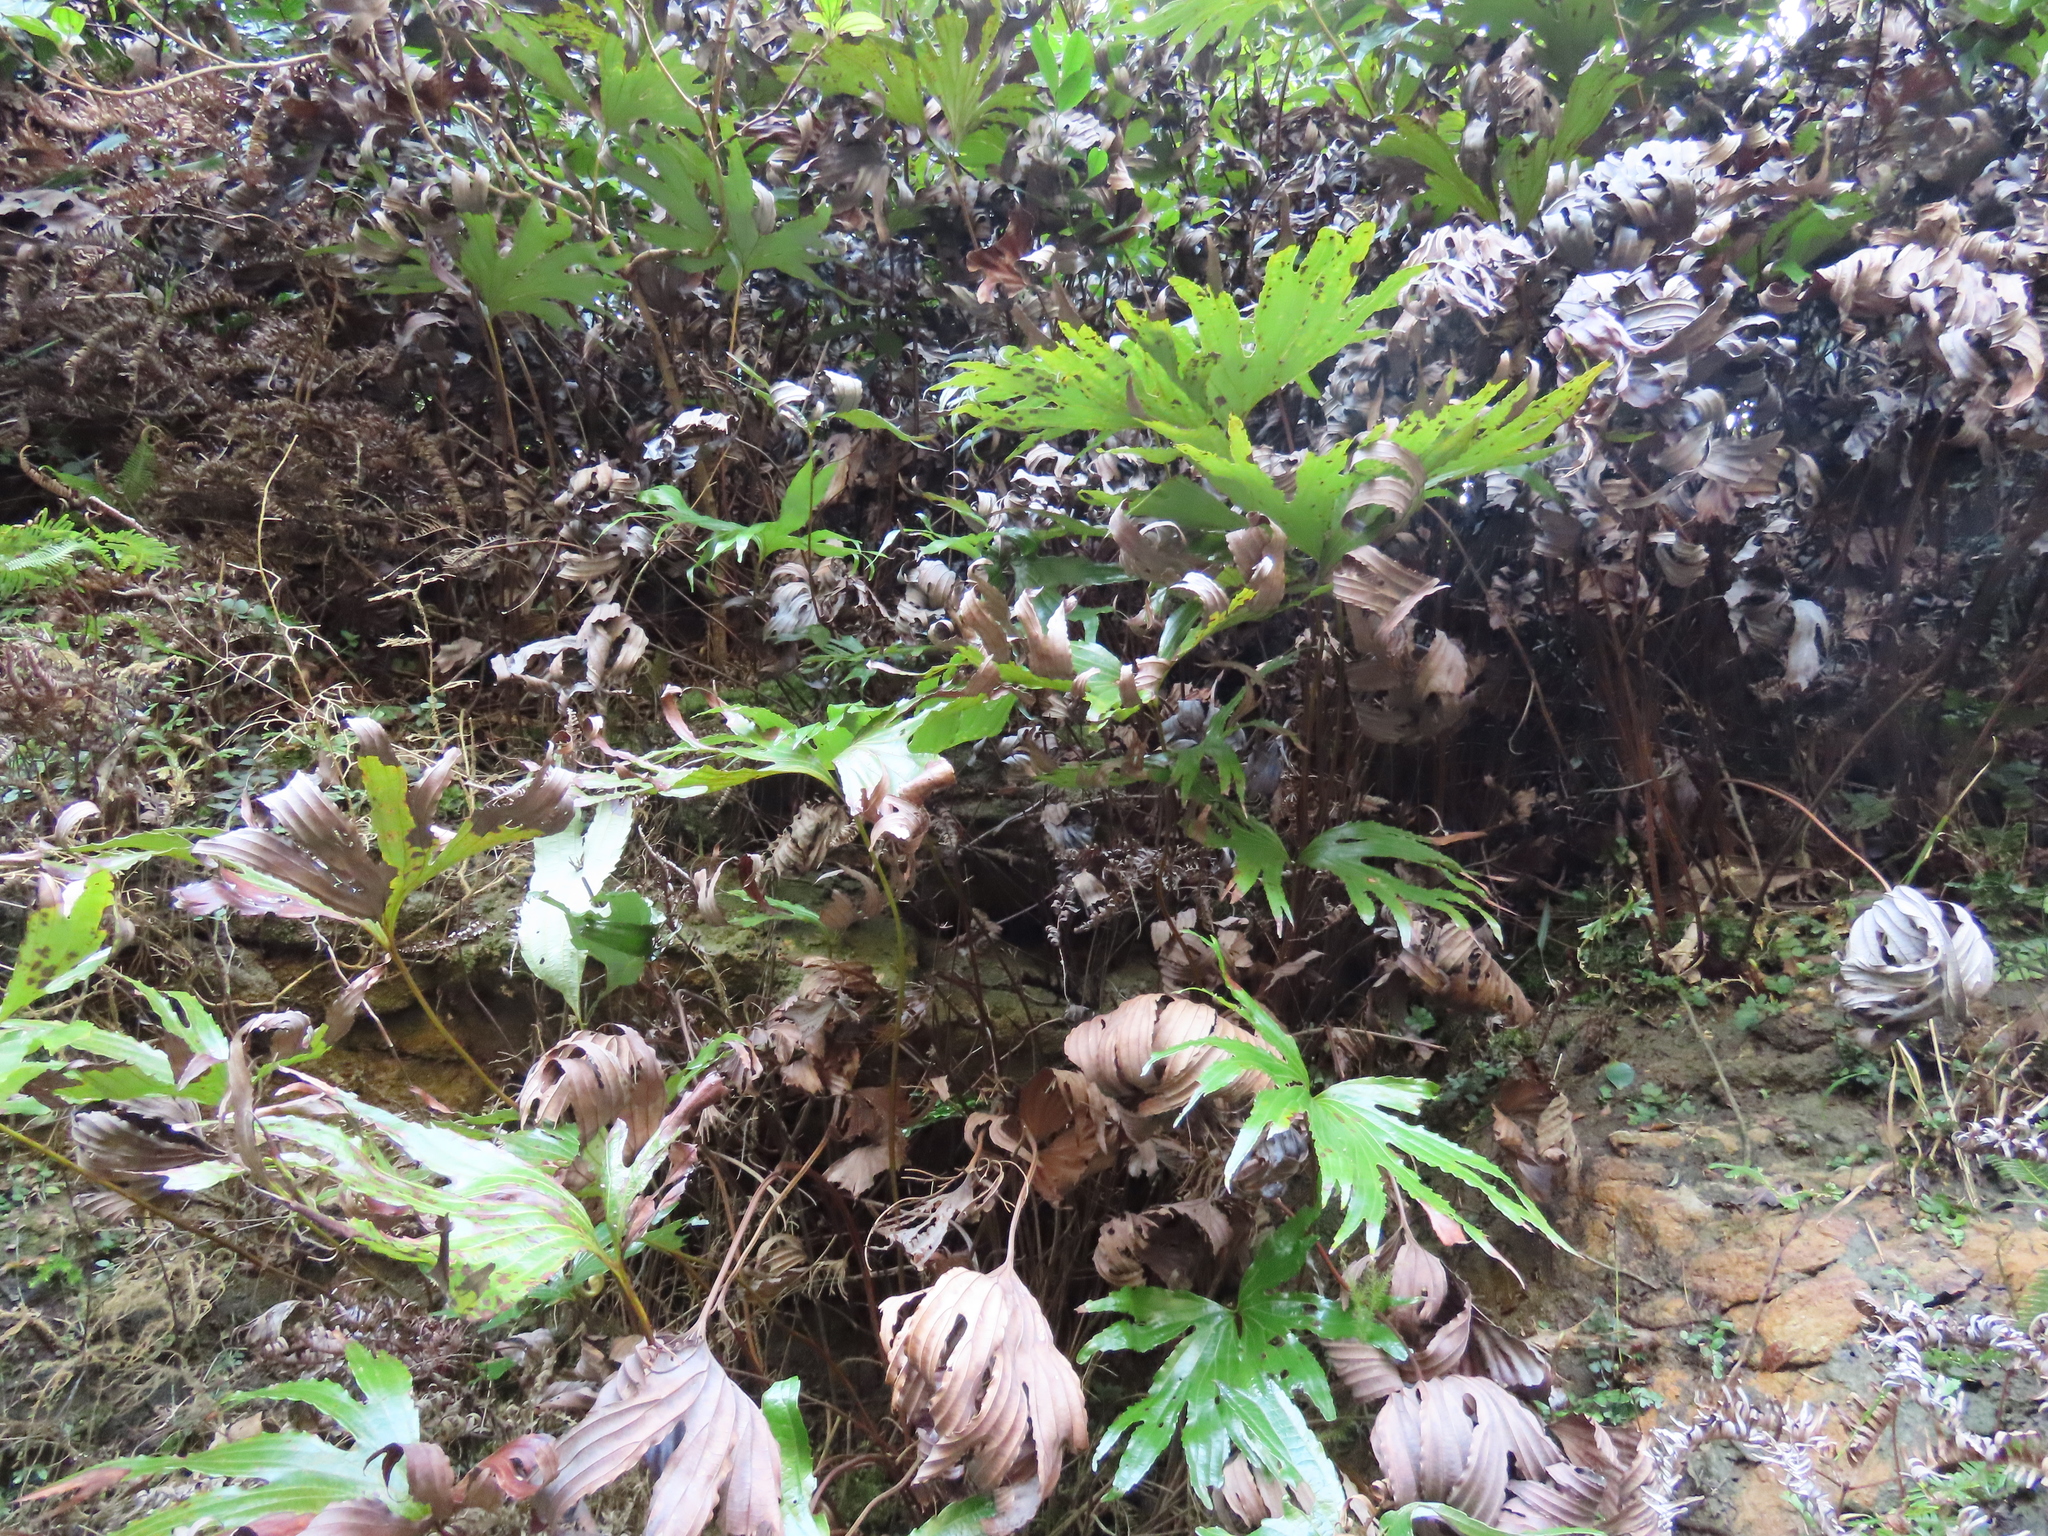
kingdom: Plantae
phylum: Tracheophyta
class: Polypodiopsida
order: Gleicheniales
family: Dipteridaceae
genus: Dipteris
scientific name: Dipteris conjugata
